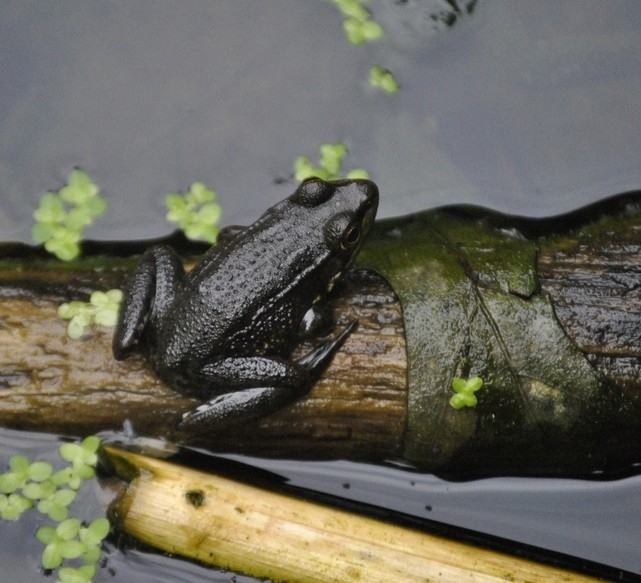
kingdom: Animalia
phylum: Chordata
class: Amphibia
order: Anura
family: Ranidae
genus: Lithobates
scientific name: Lithobates clamitans
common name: Green frog
